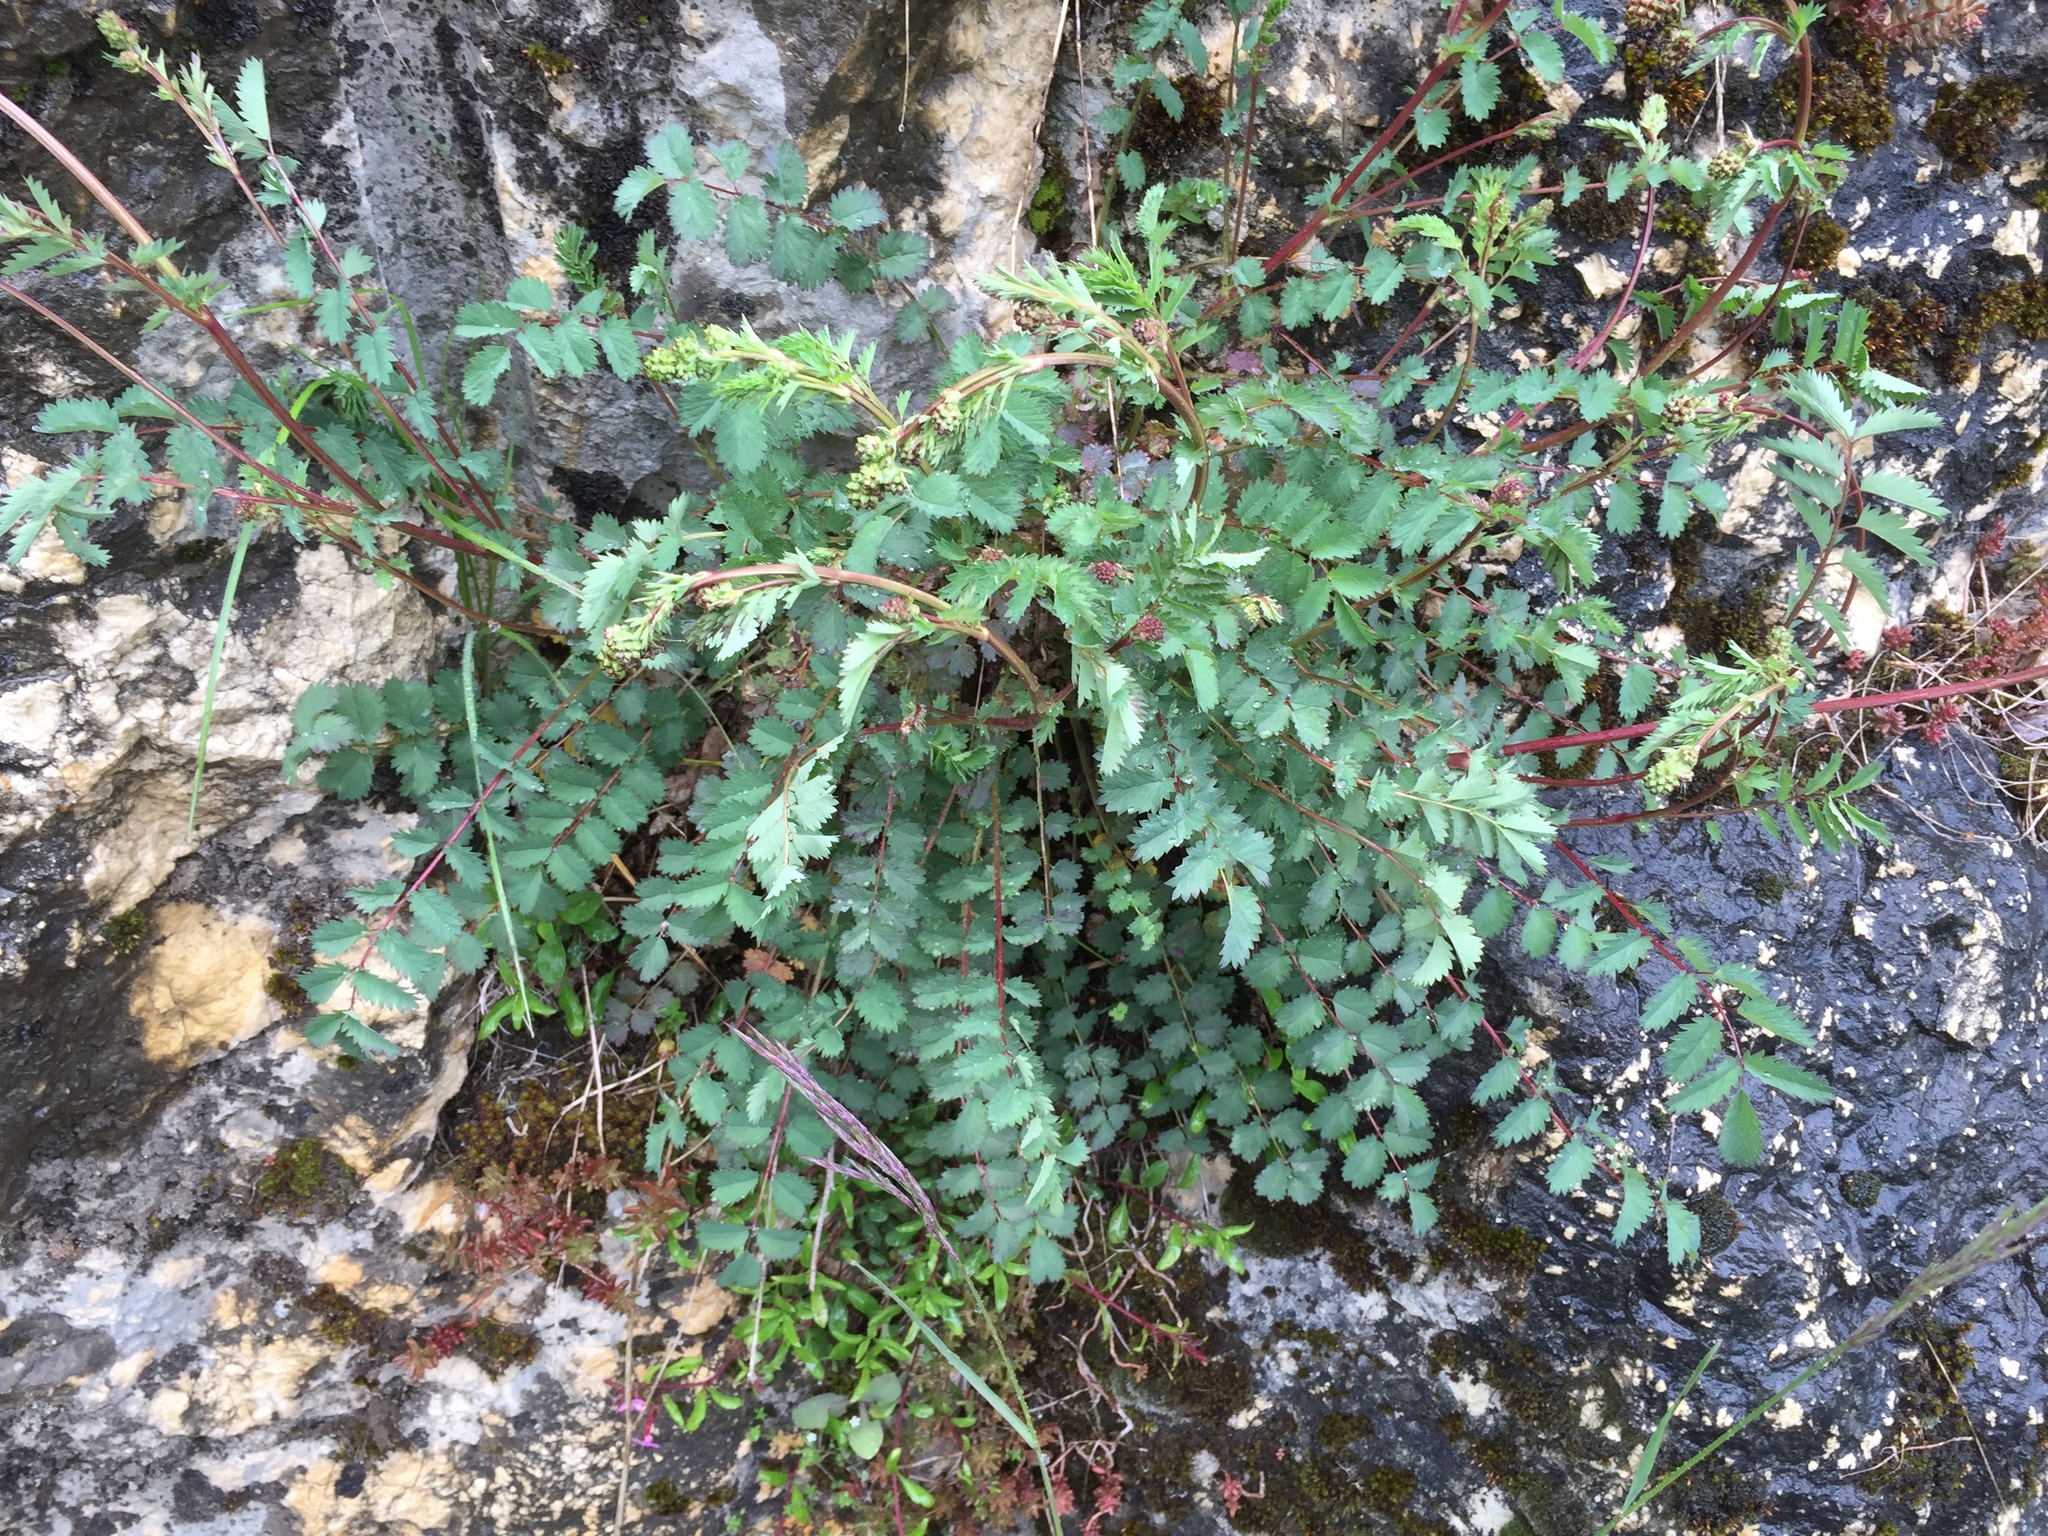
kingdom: Plantae
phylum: Tracheophyta
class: Magnoliopsida
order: Rosales
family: Rosaceae
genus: Poterium
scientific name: Poterium sanguisorba
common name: Salad burnet
